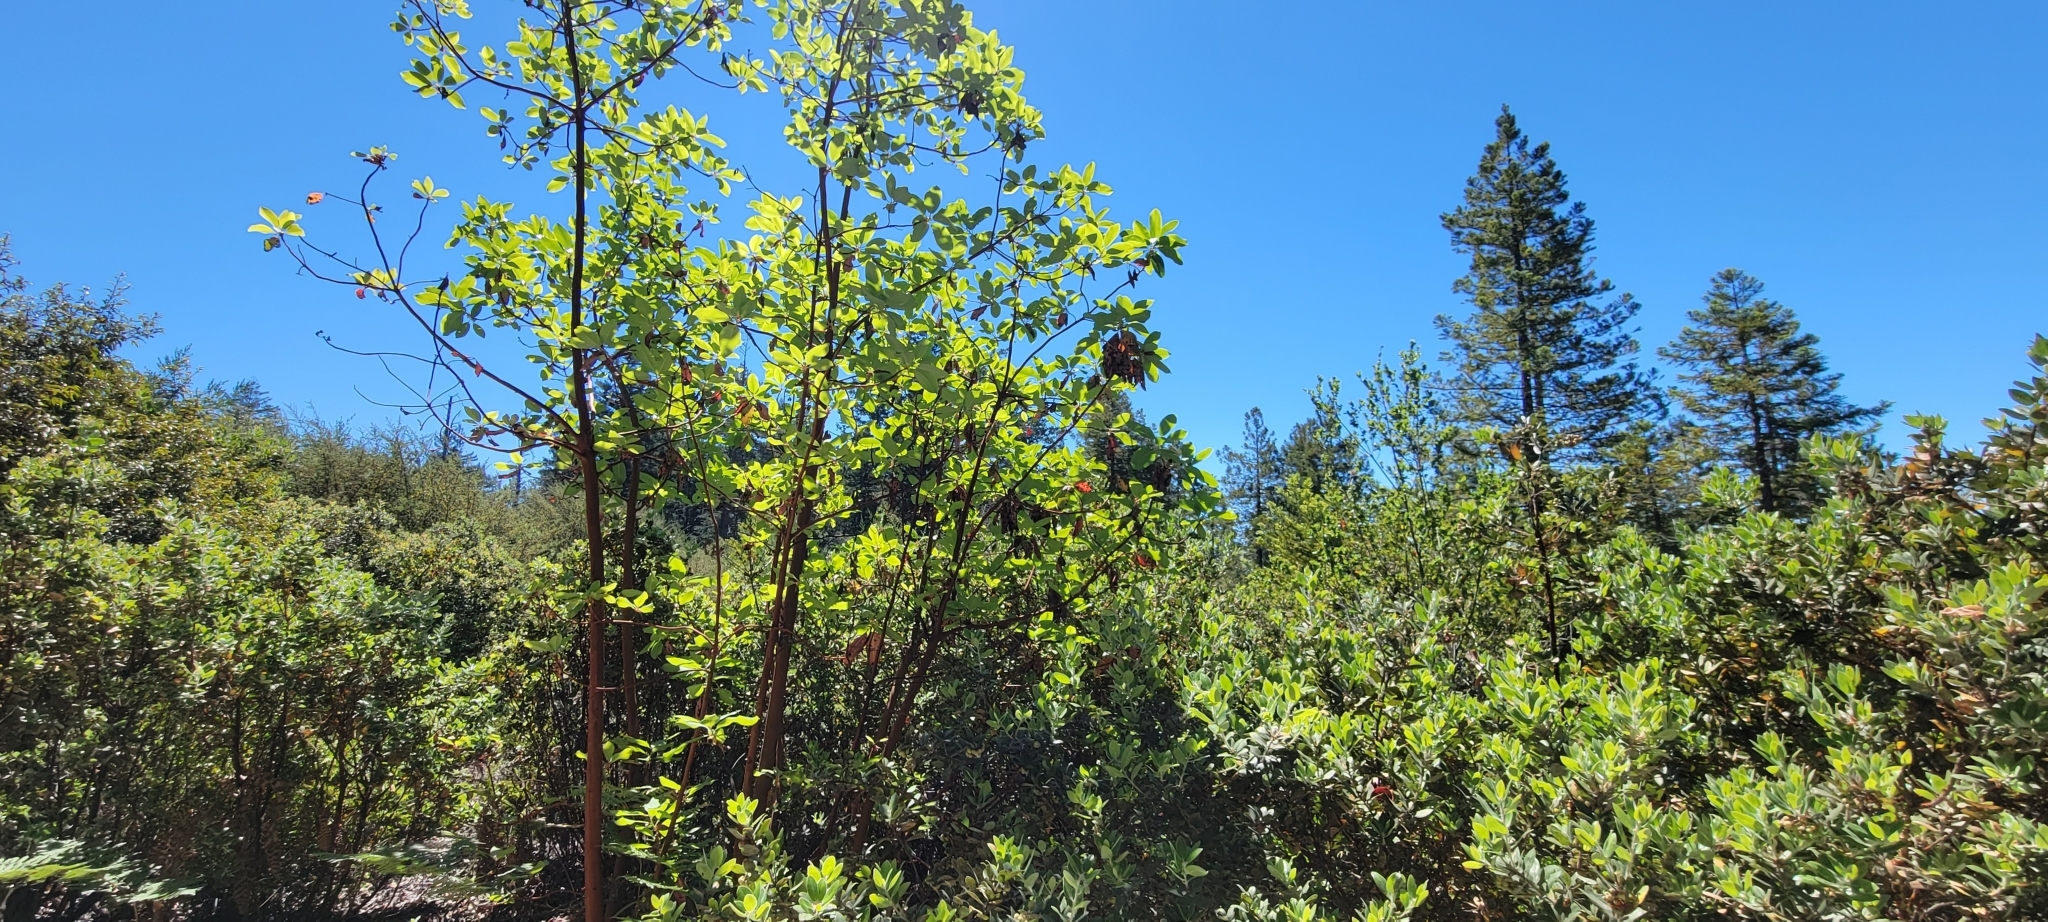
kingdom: Plantae
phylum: Tracheophyta
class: Magnoliopsida
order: Ericales
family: Ericaceae
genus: Arbutus
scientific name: Arbutus menziesii
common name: Pacific madrone
